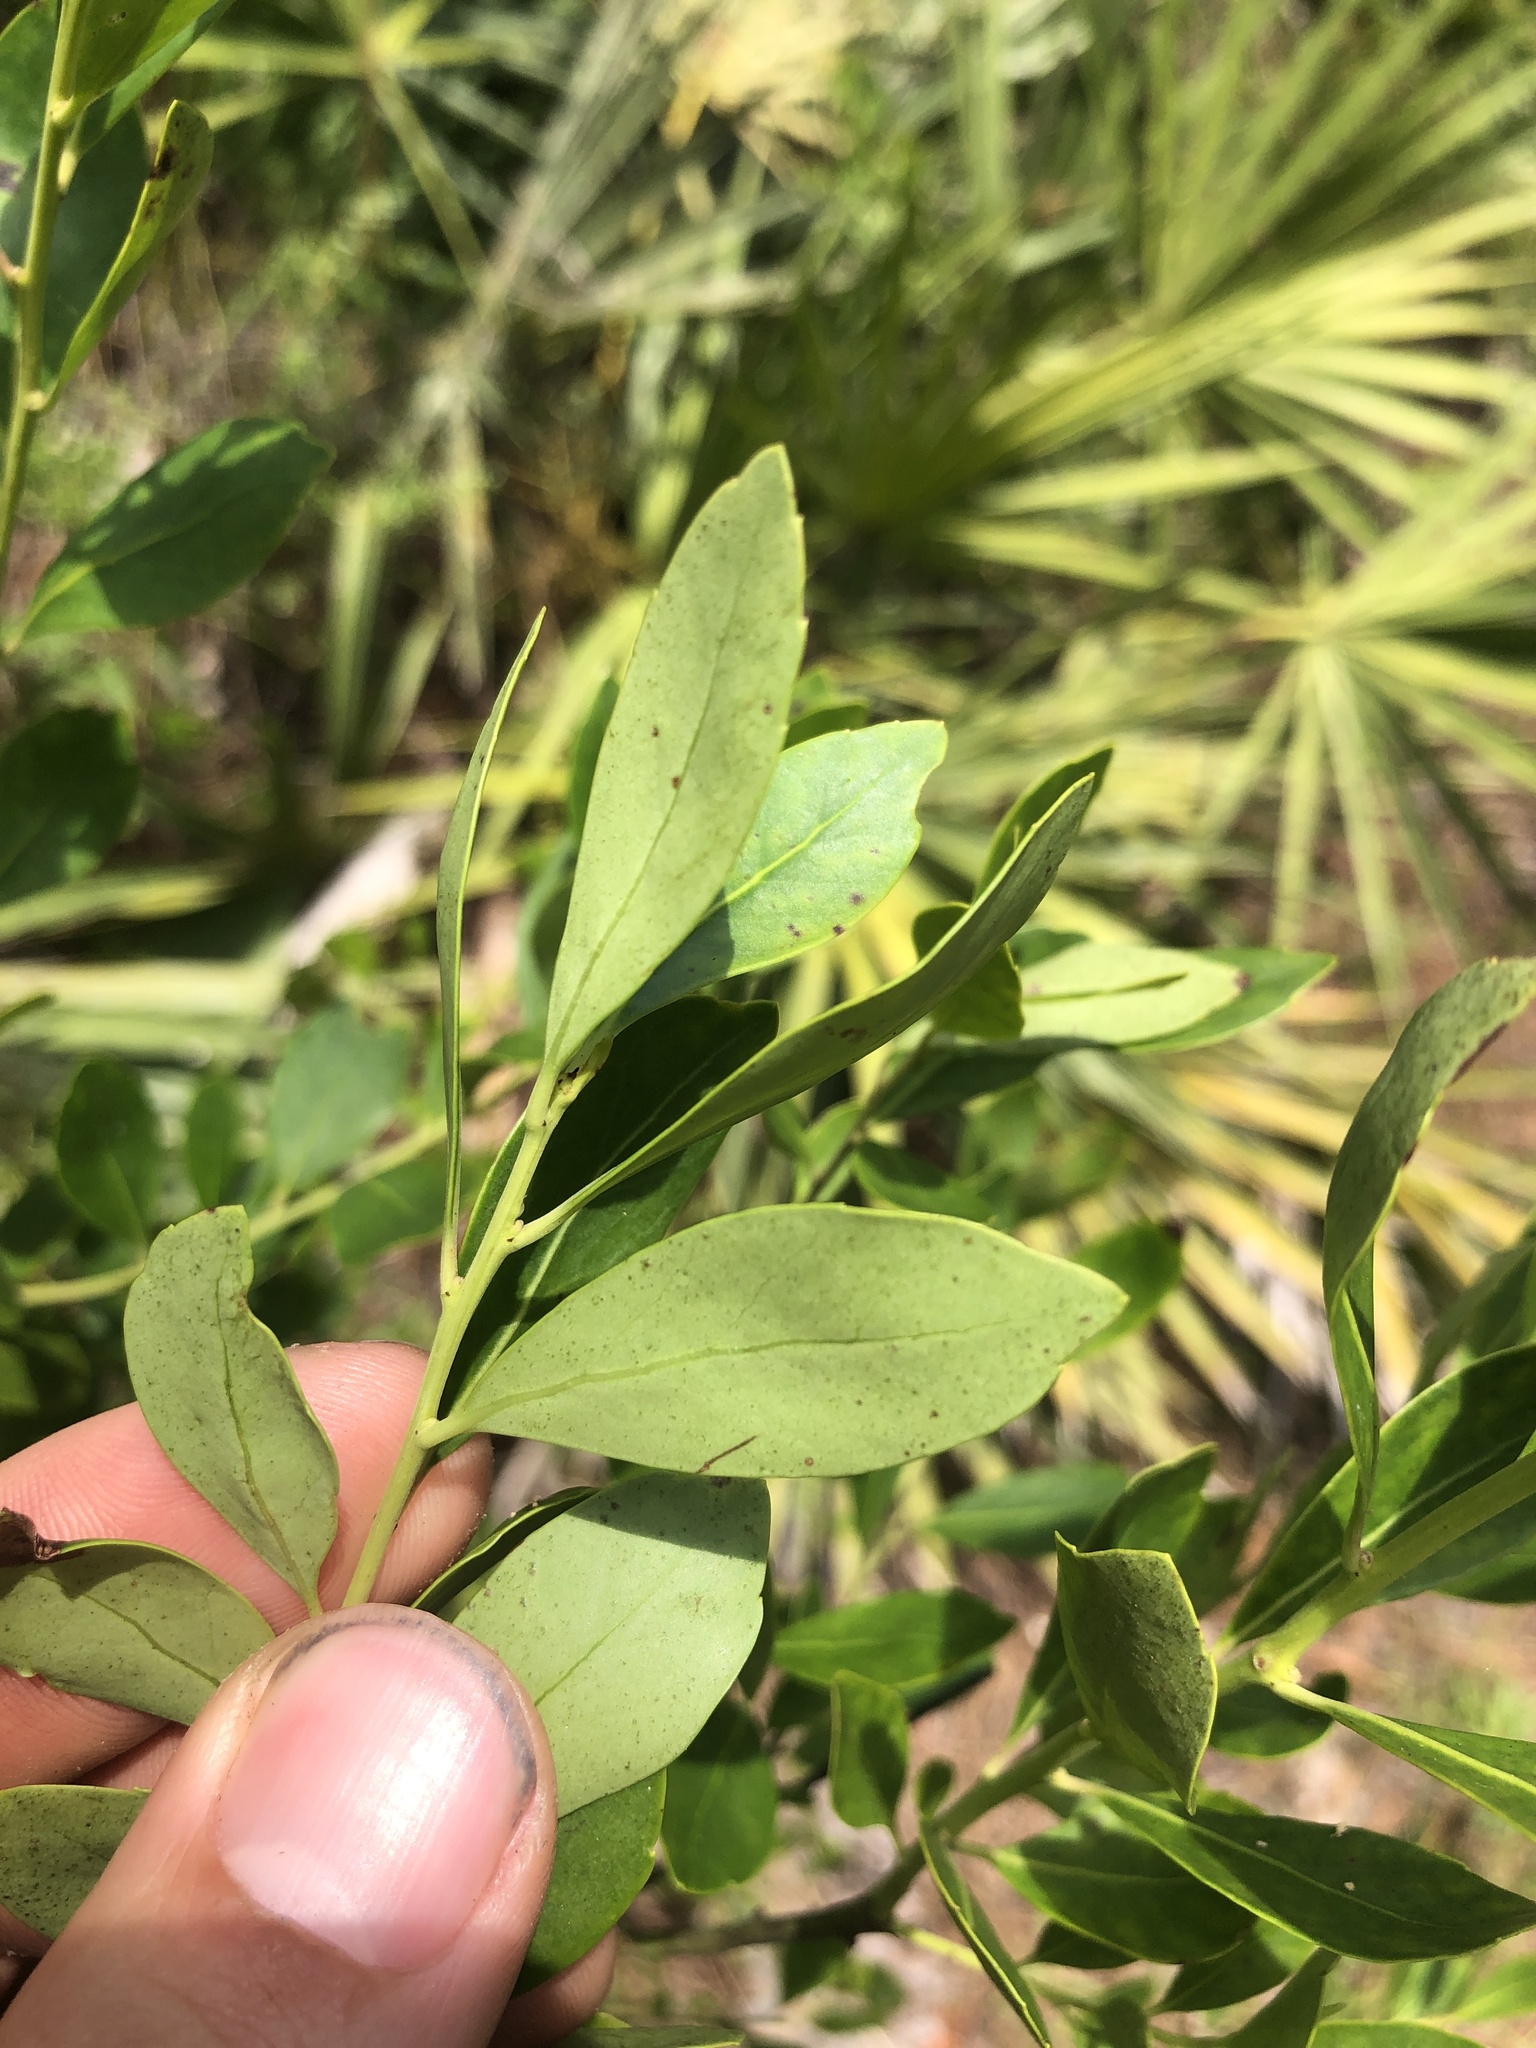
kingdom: Plantae
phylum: Tracheophyta
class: Magnoliopsida
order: Aquifoliales
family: Aquifoliaceae
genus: Ilex
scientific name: Ilex glabra
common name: Bitter gallberry
